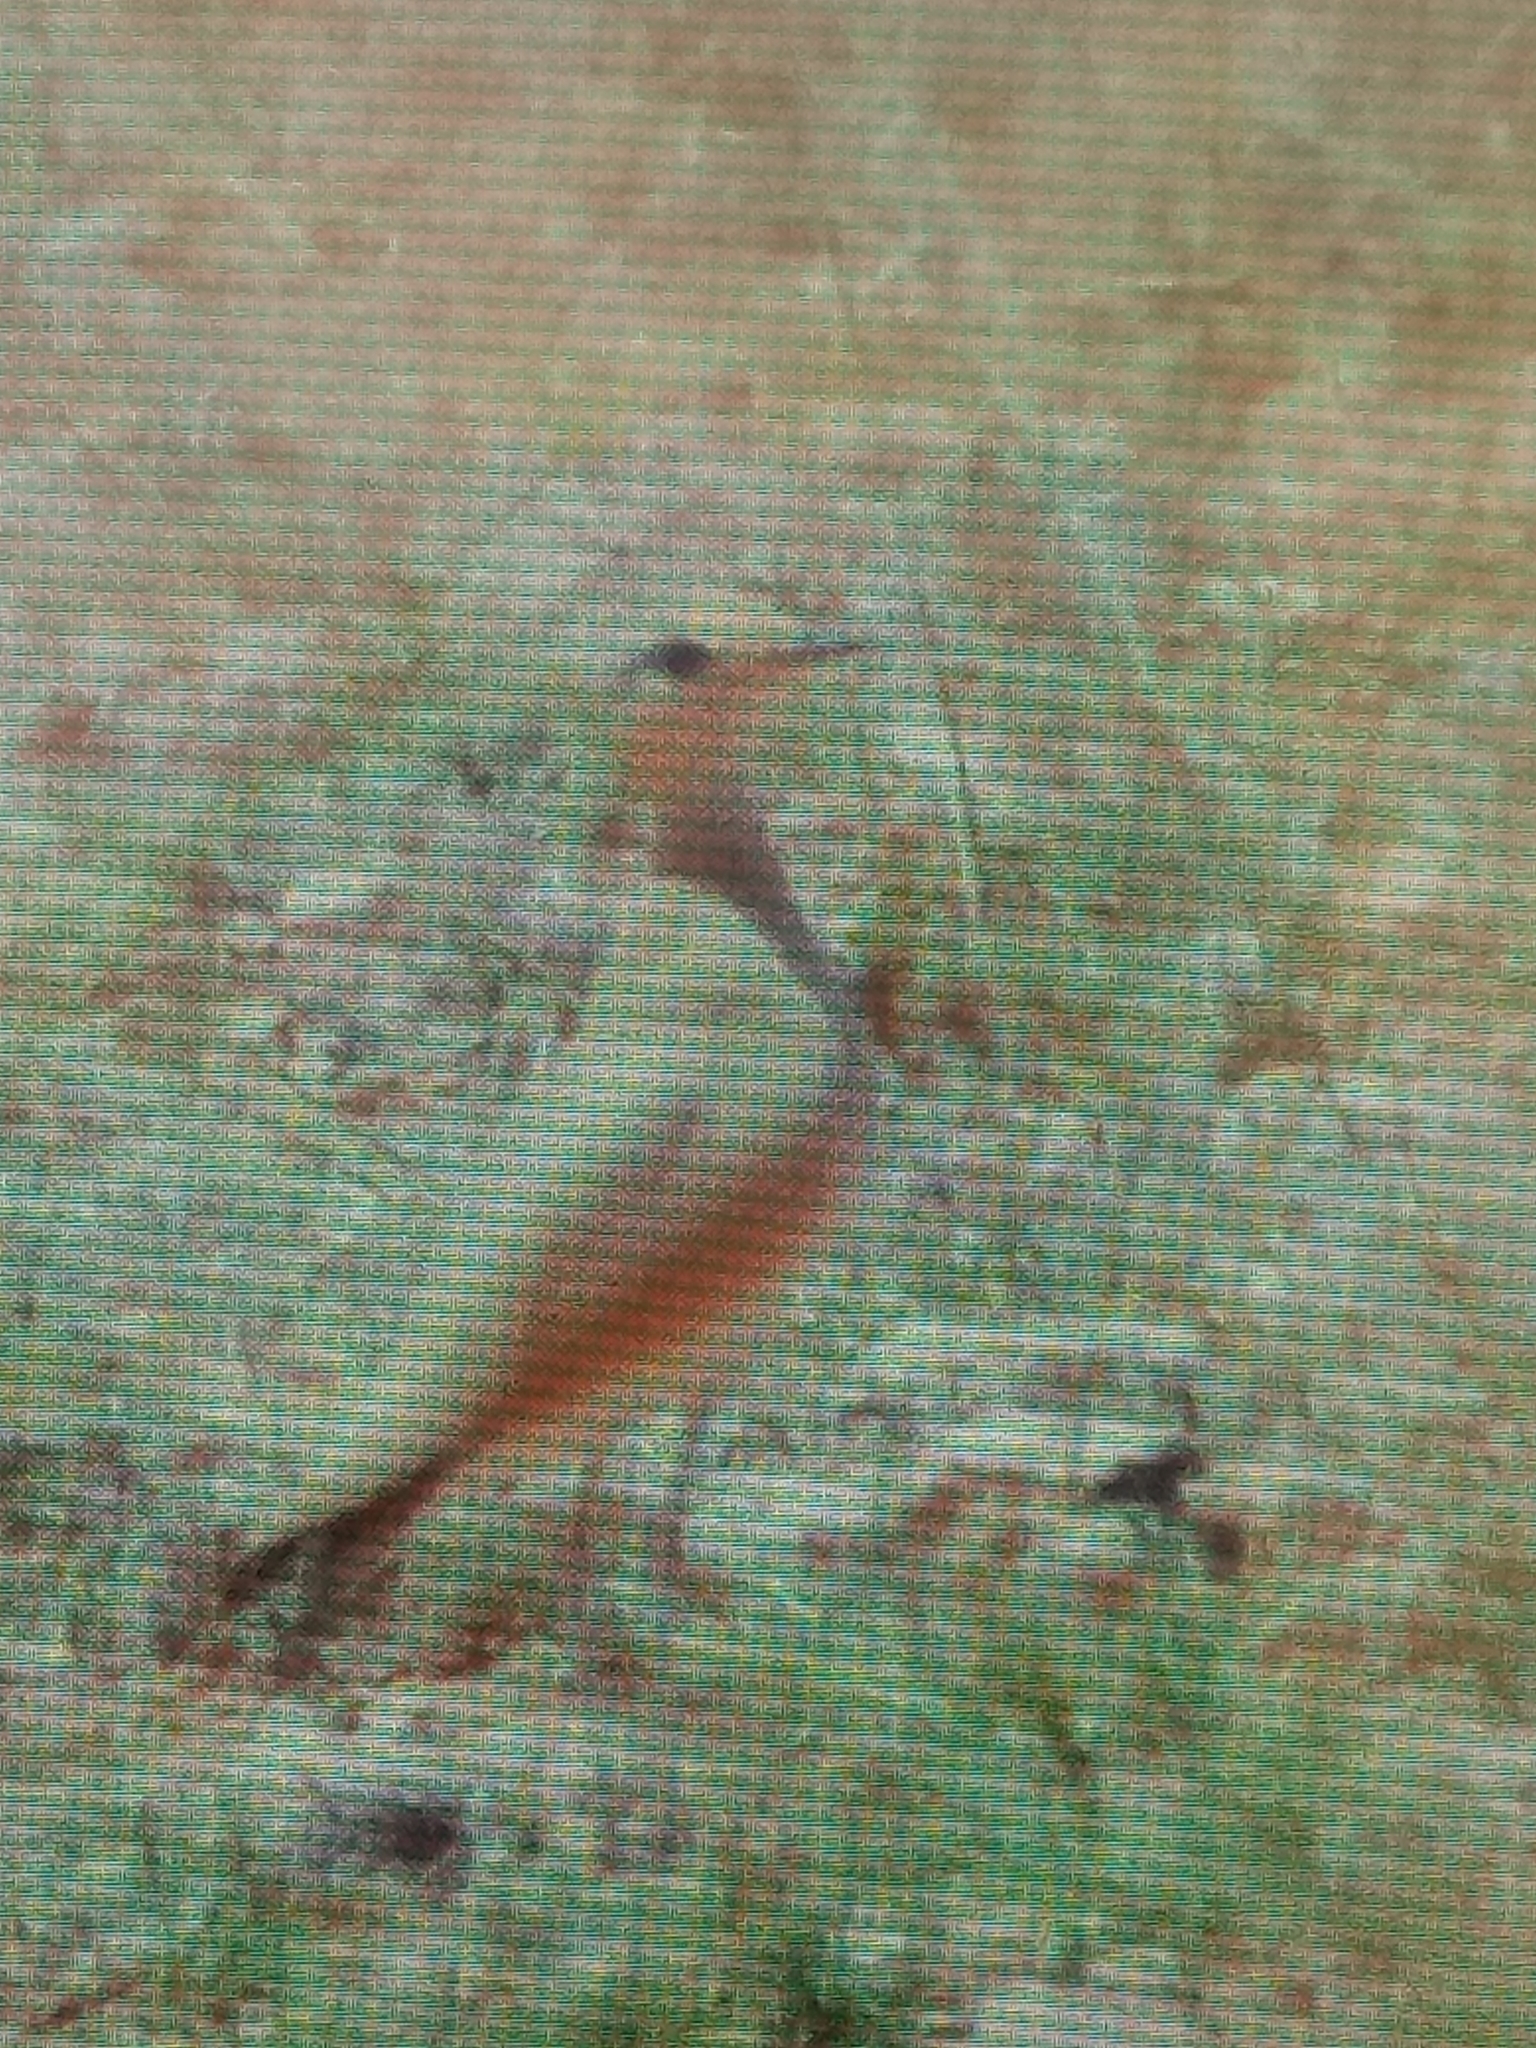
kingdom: Animalia
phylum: Chordata
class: Aves
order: Charadriiformes
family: Glareolidae
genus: Cursorius
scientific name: Cursorius cursor
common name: Cream-colored courser
